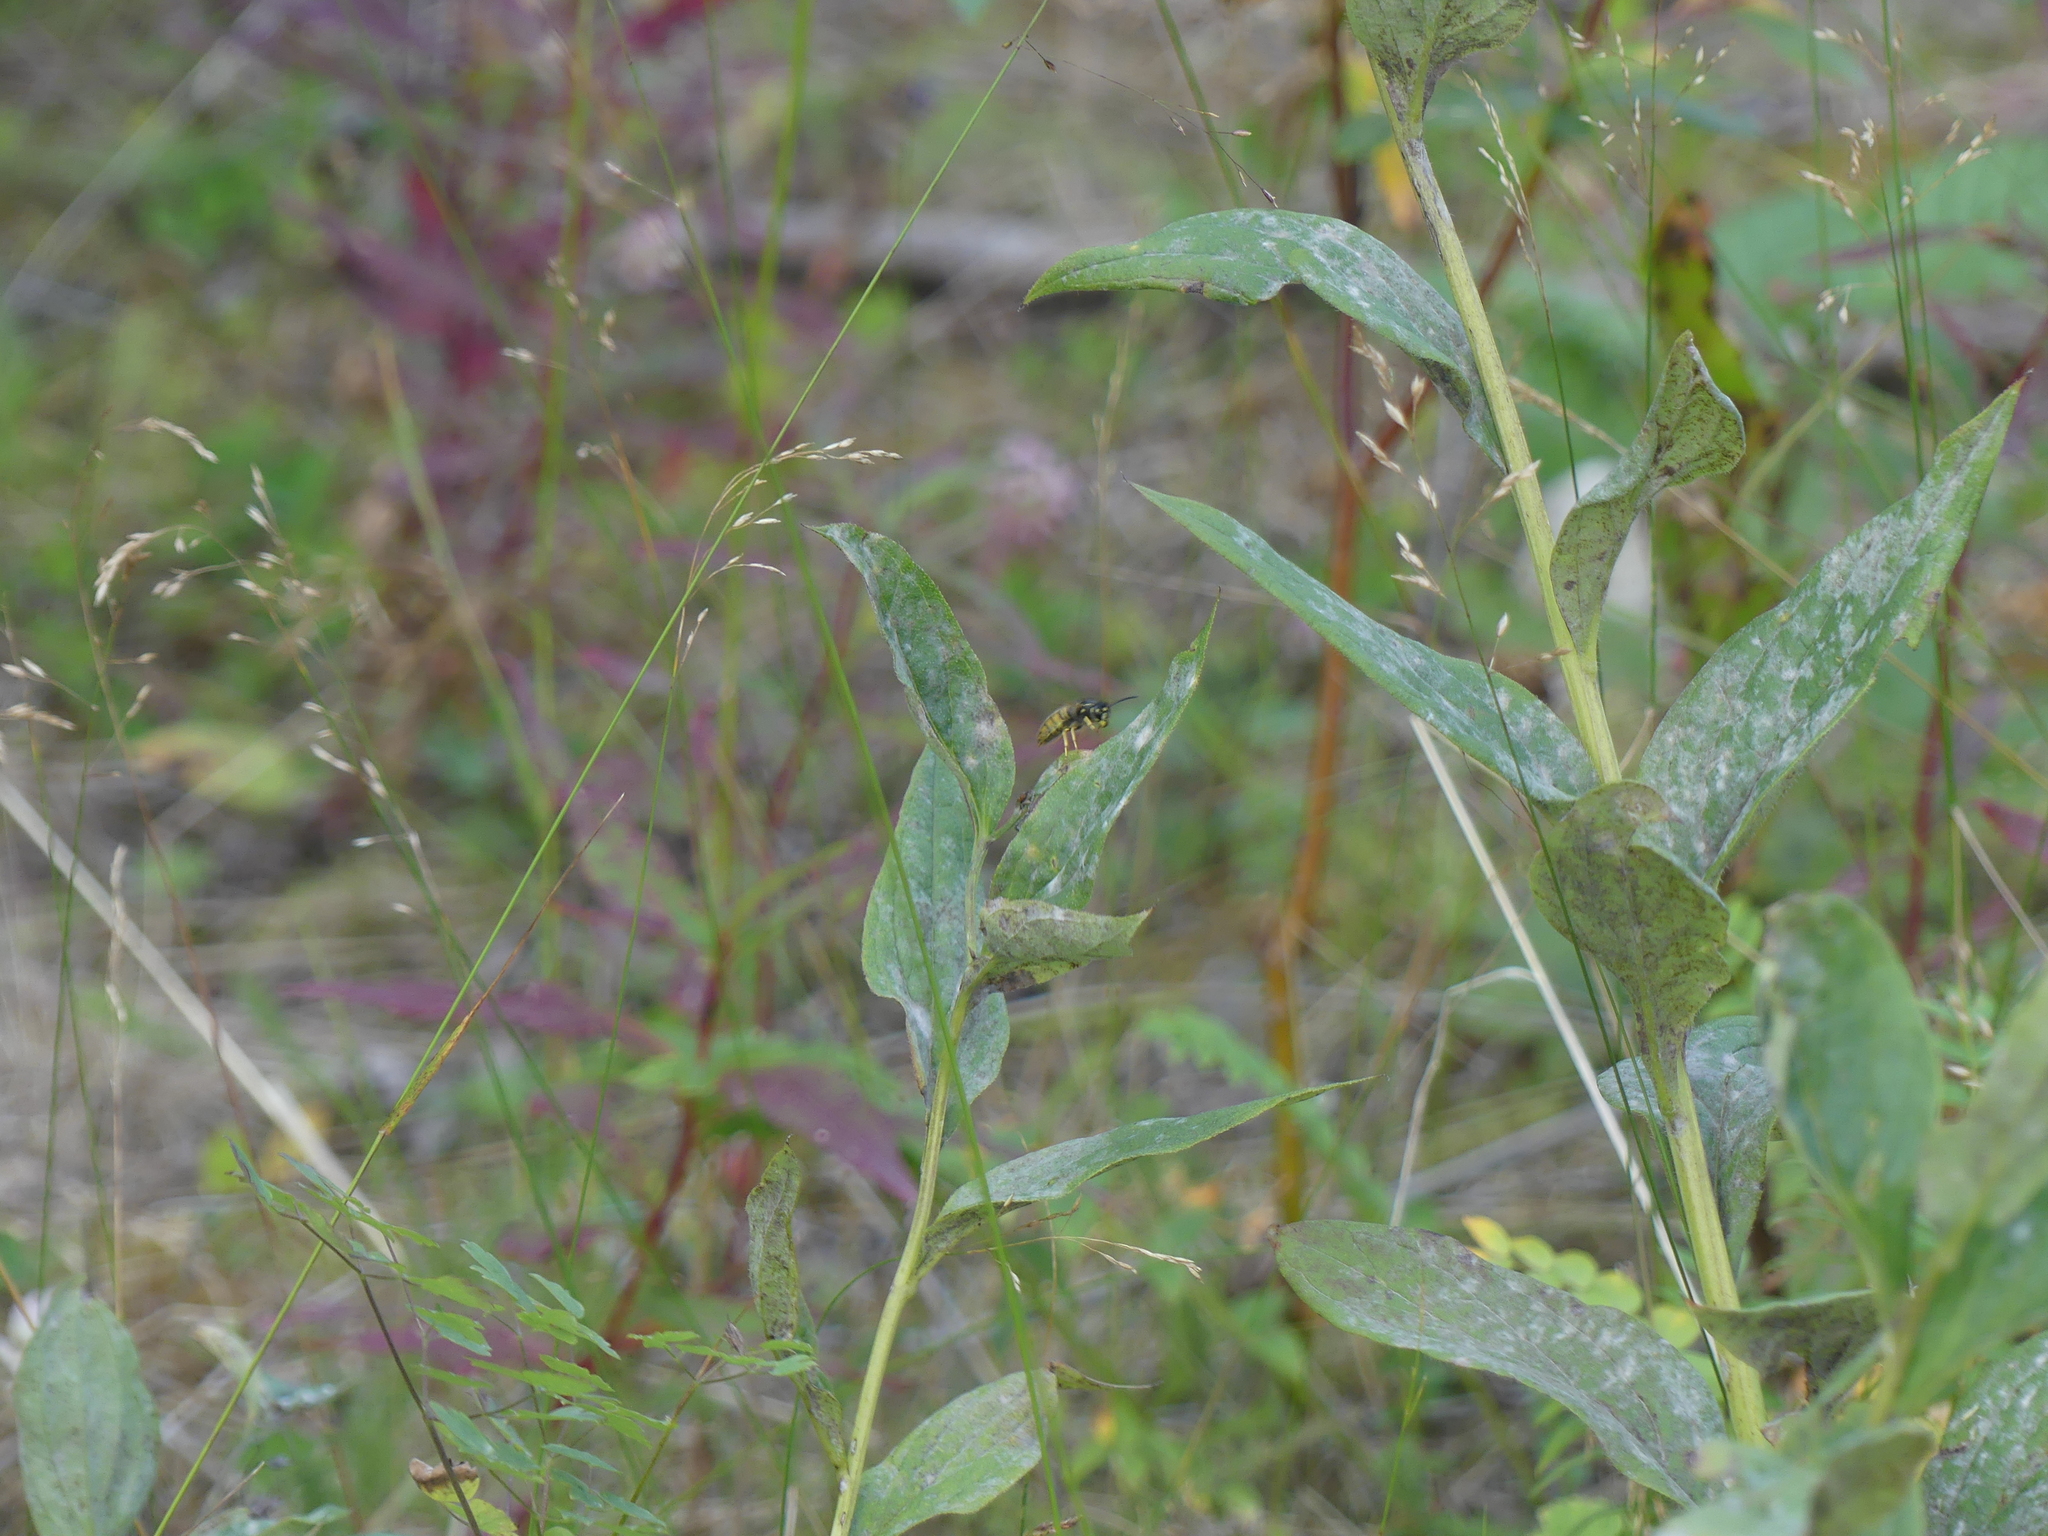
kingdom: Animalia
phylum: Arthropoda
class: Insecta
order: Hymenoptera
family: Vespidae
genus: Vespula
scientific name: Vespula
